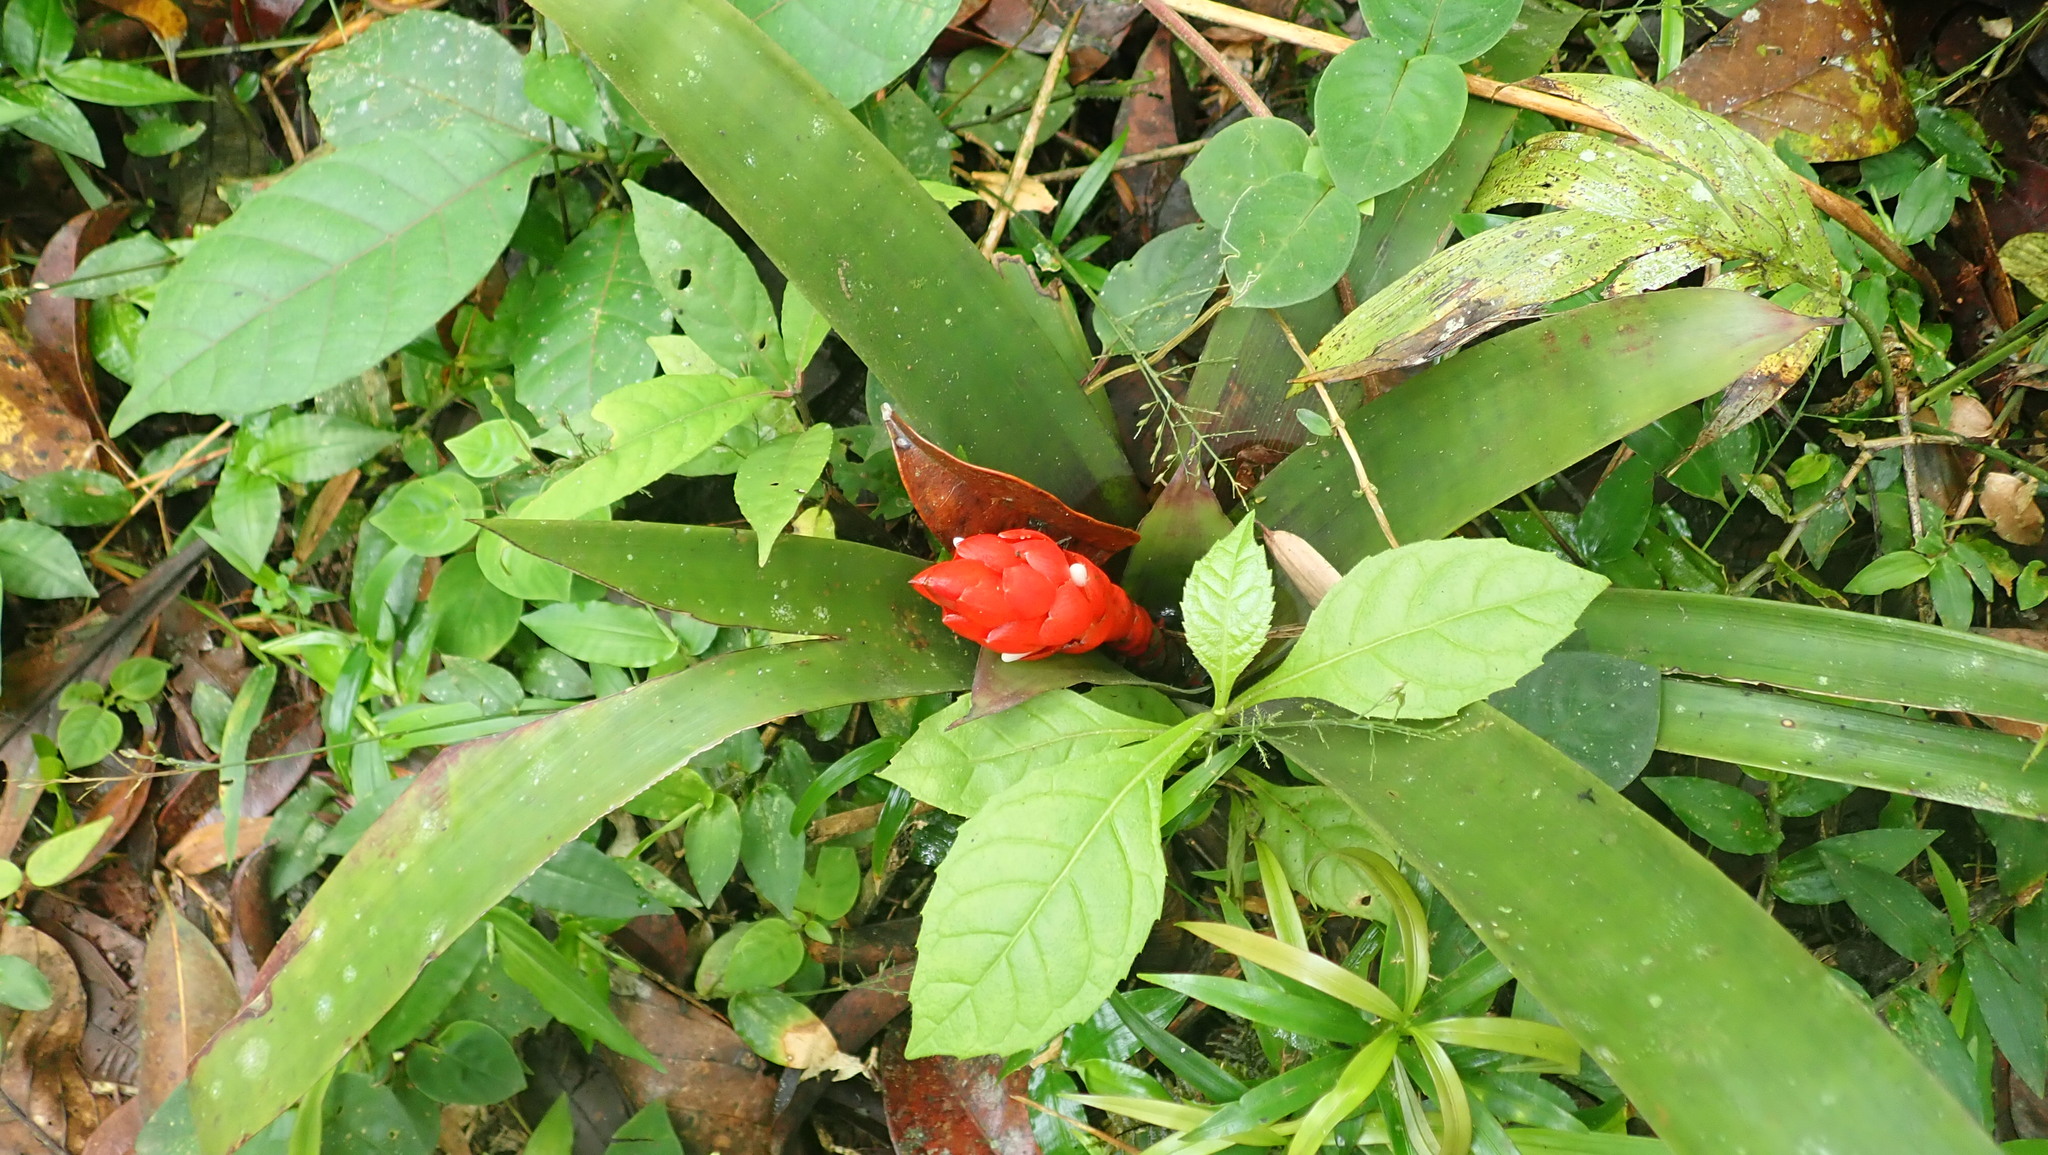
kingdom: Plantae
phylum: Tracheophyta
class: Liliopsida
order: Poales
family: Bromeliaceae
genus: Guzmania
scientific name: Guzmania desautelsii
